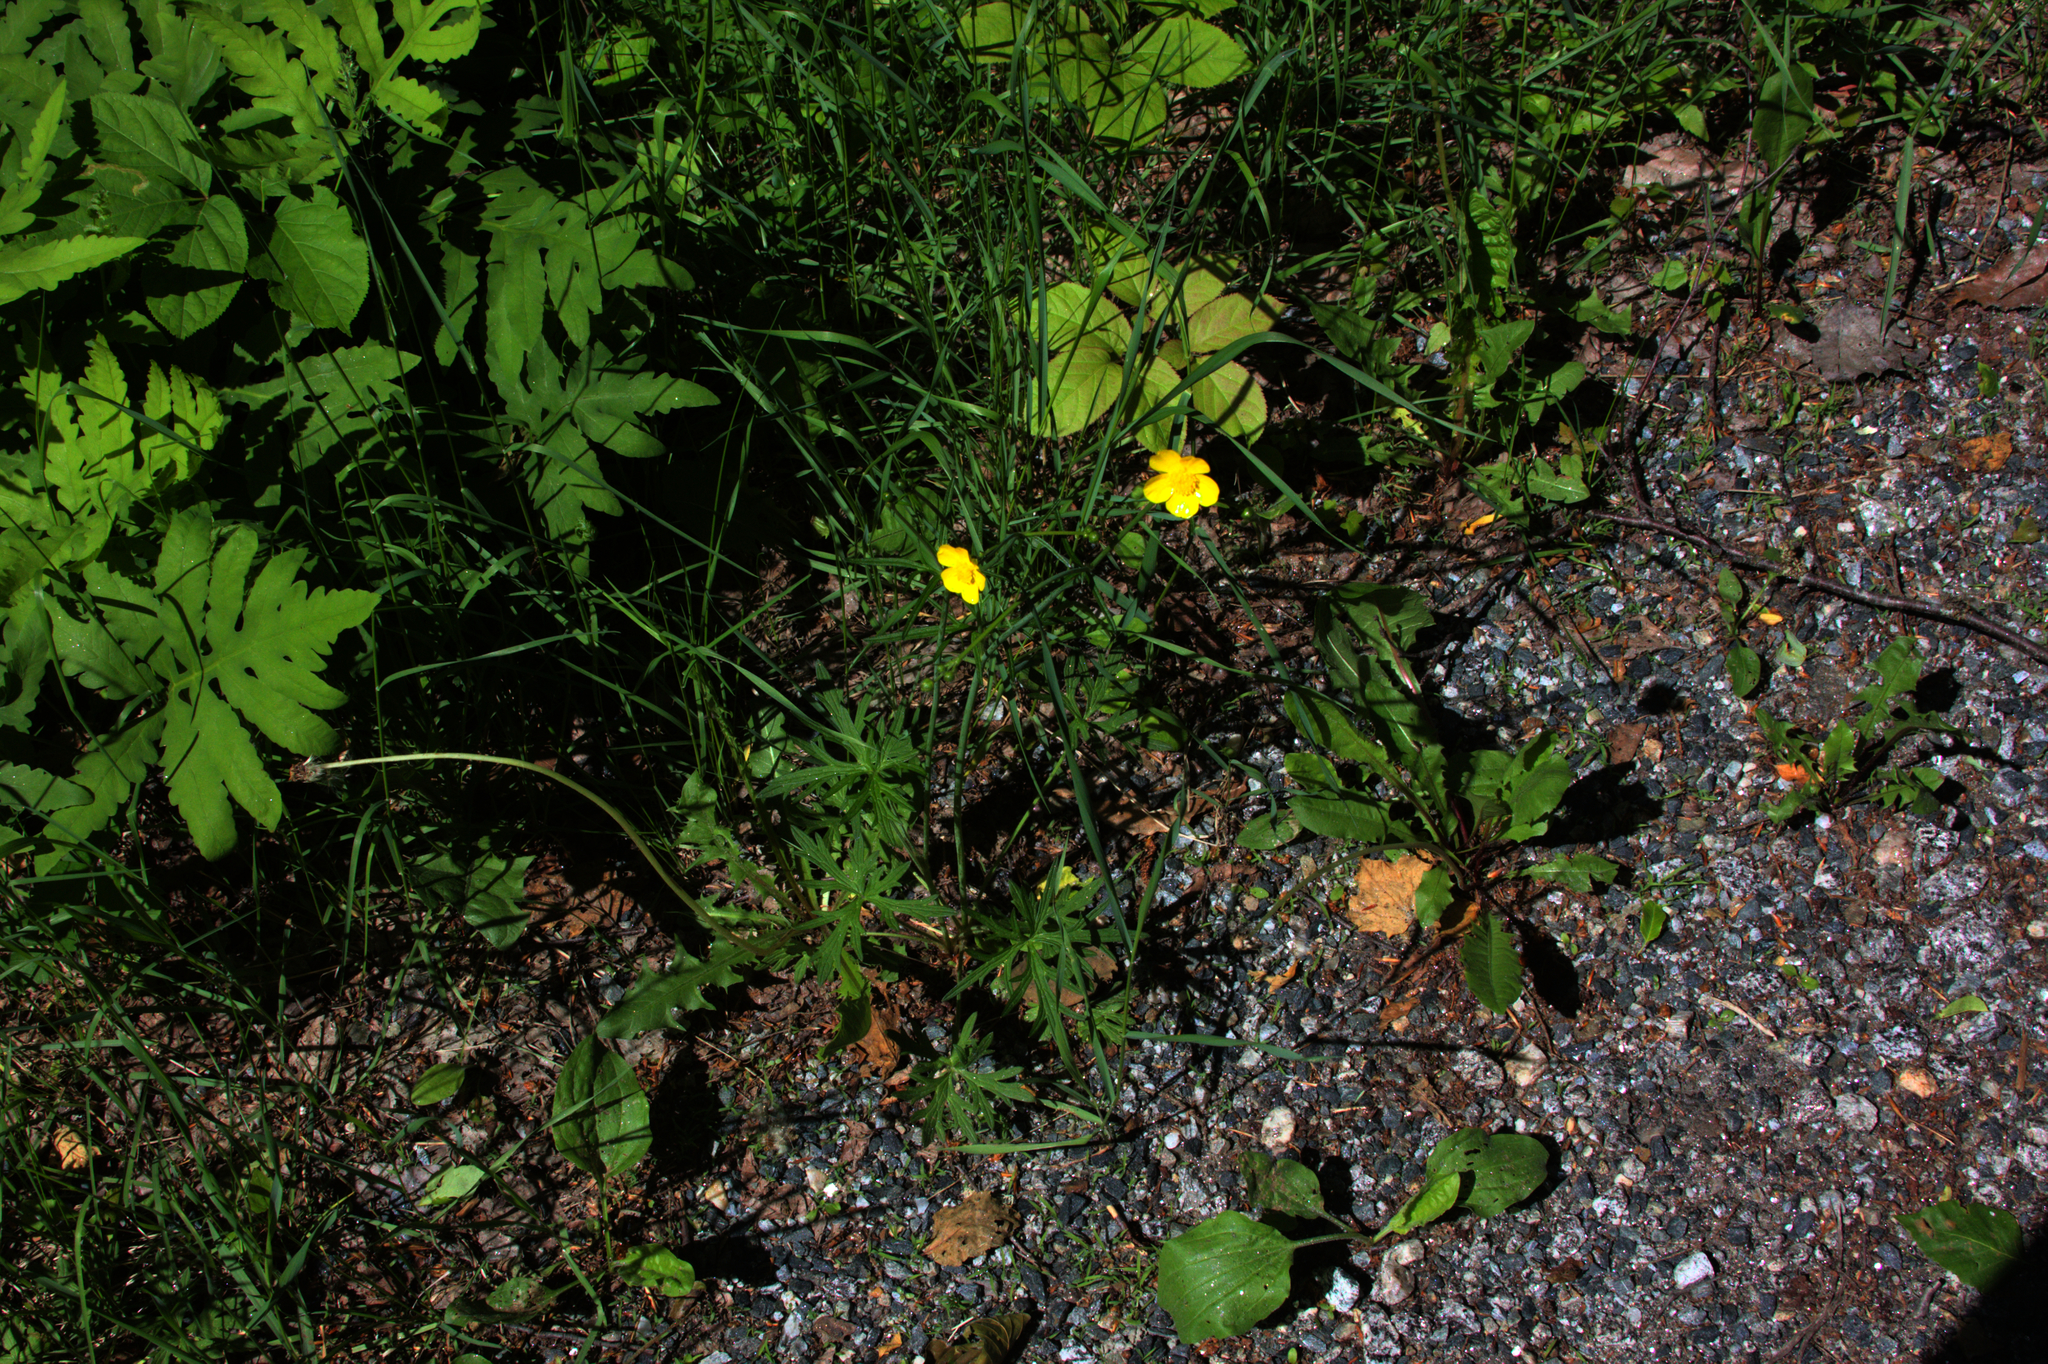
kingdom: Plantae
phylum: Tracheophyta
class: Polypodiopsida
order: Polypodiales
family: Onocleaceae
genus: Onoclea
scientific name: Onoclea sensibilis
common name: Sensitive fern
